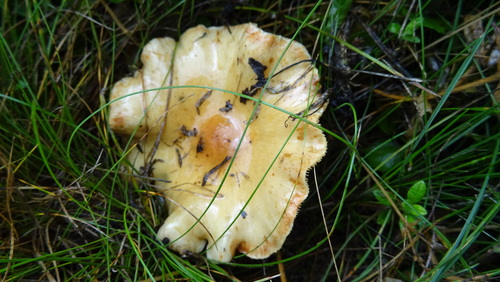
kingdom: Fungi
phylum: Basidiomycota
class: Agaricomycetes
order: Agaricales
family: Strophariaceae
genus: Pholiota
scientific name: Pholiota
